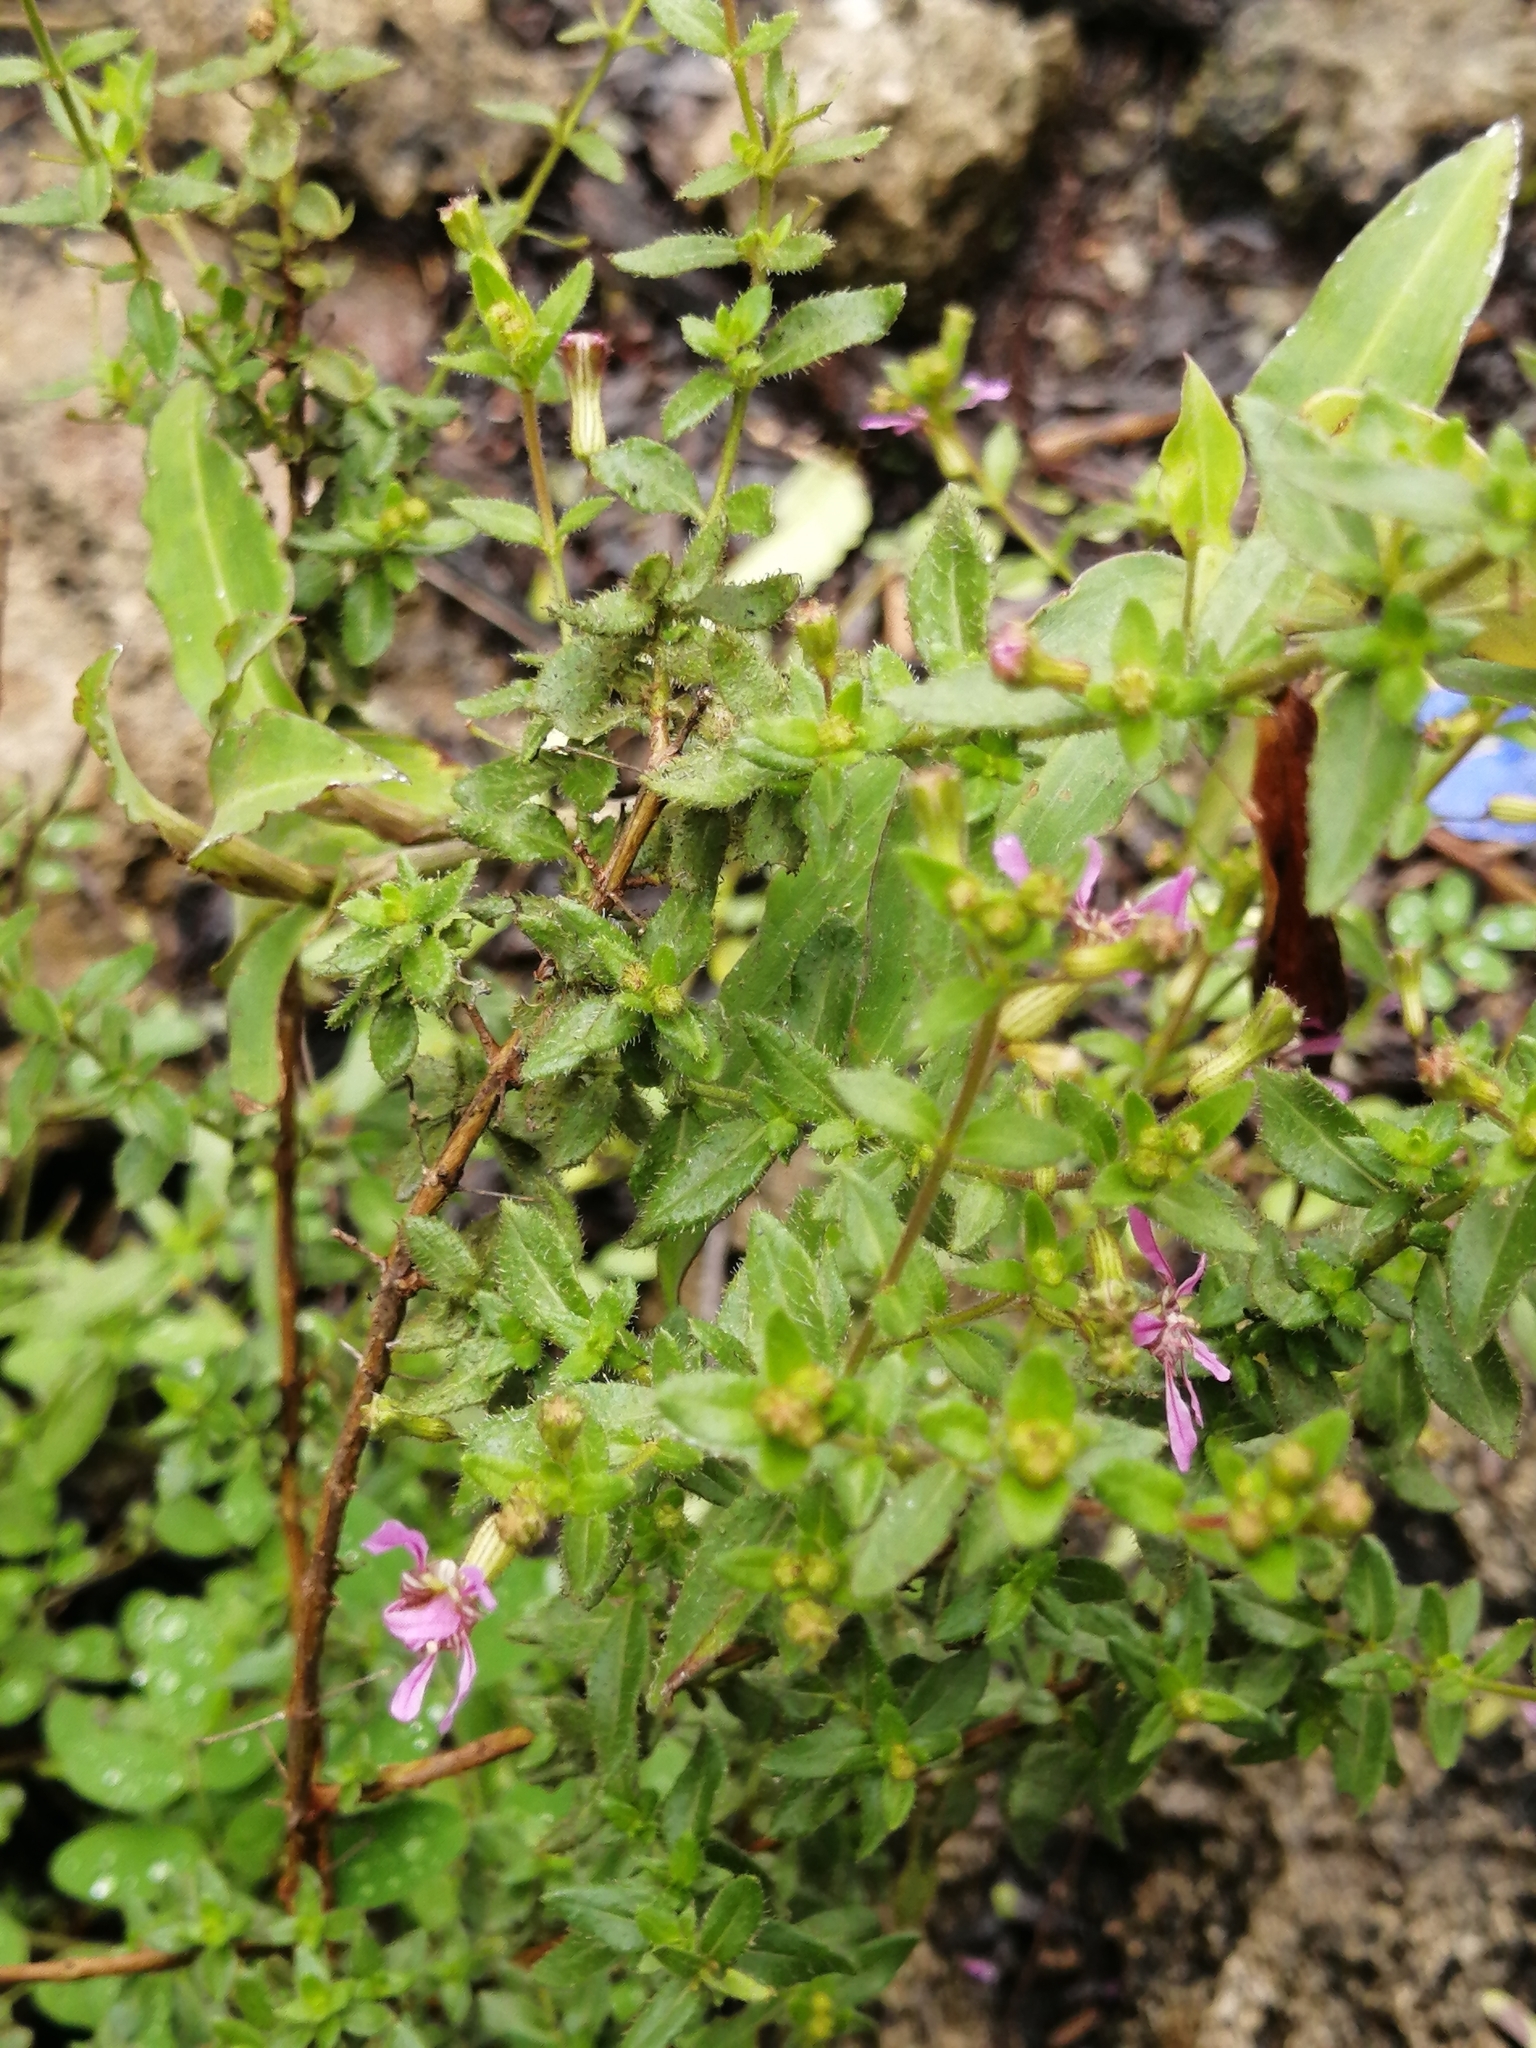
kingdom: Plantae
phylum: Tracheophyta
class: Magnoliopsida
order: Myrtales
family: Lythraceae
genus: Cuphea
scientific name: Cuphea gaumeri
